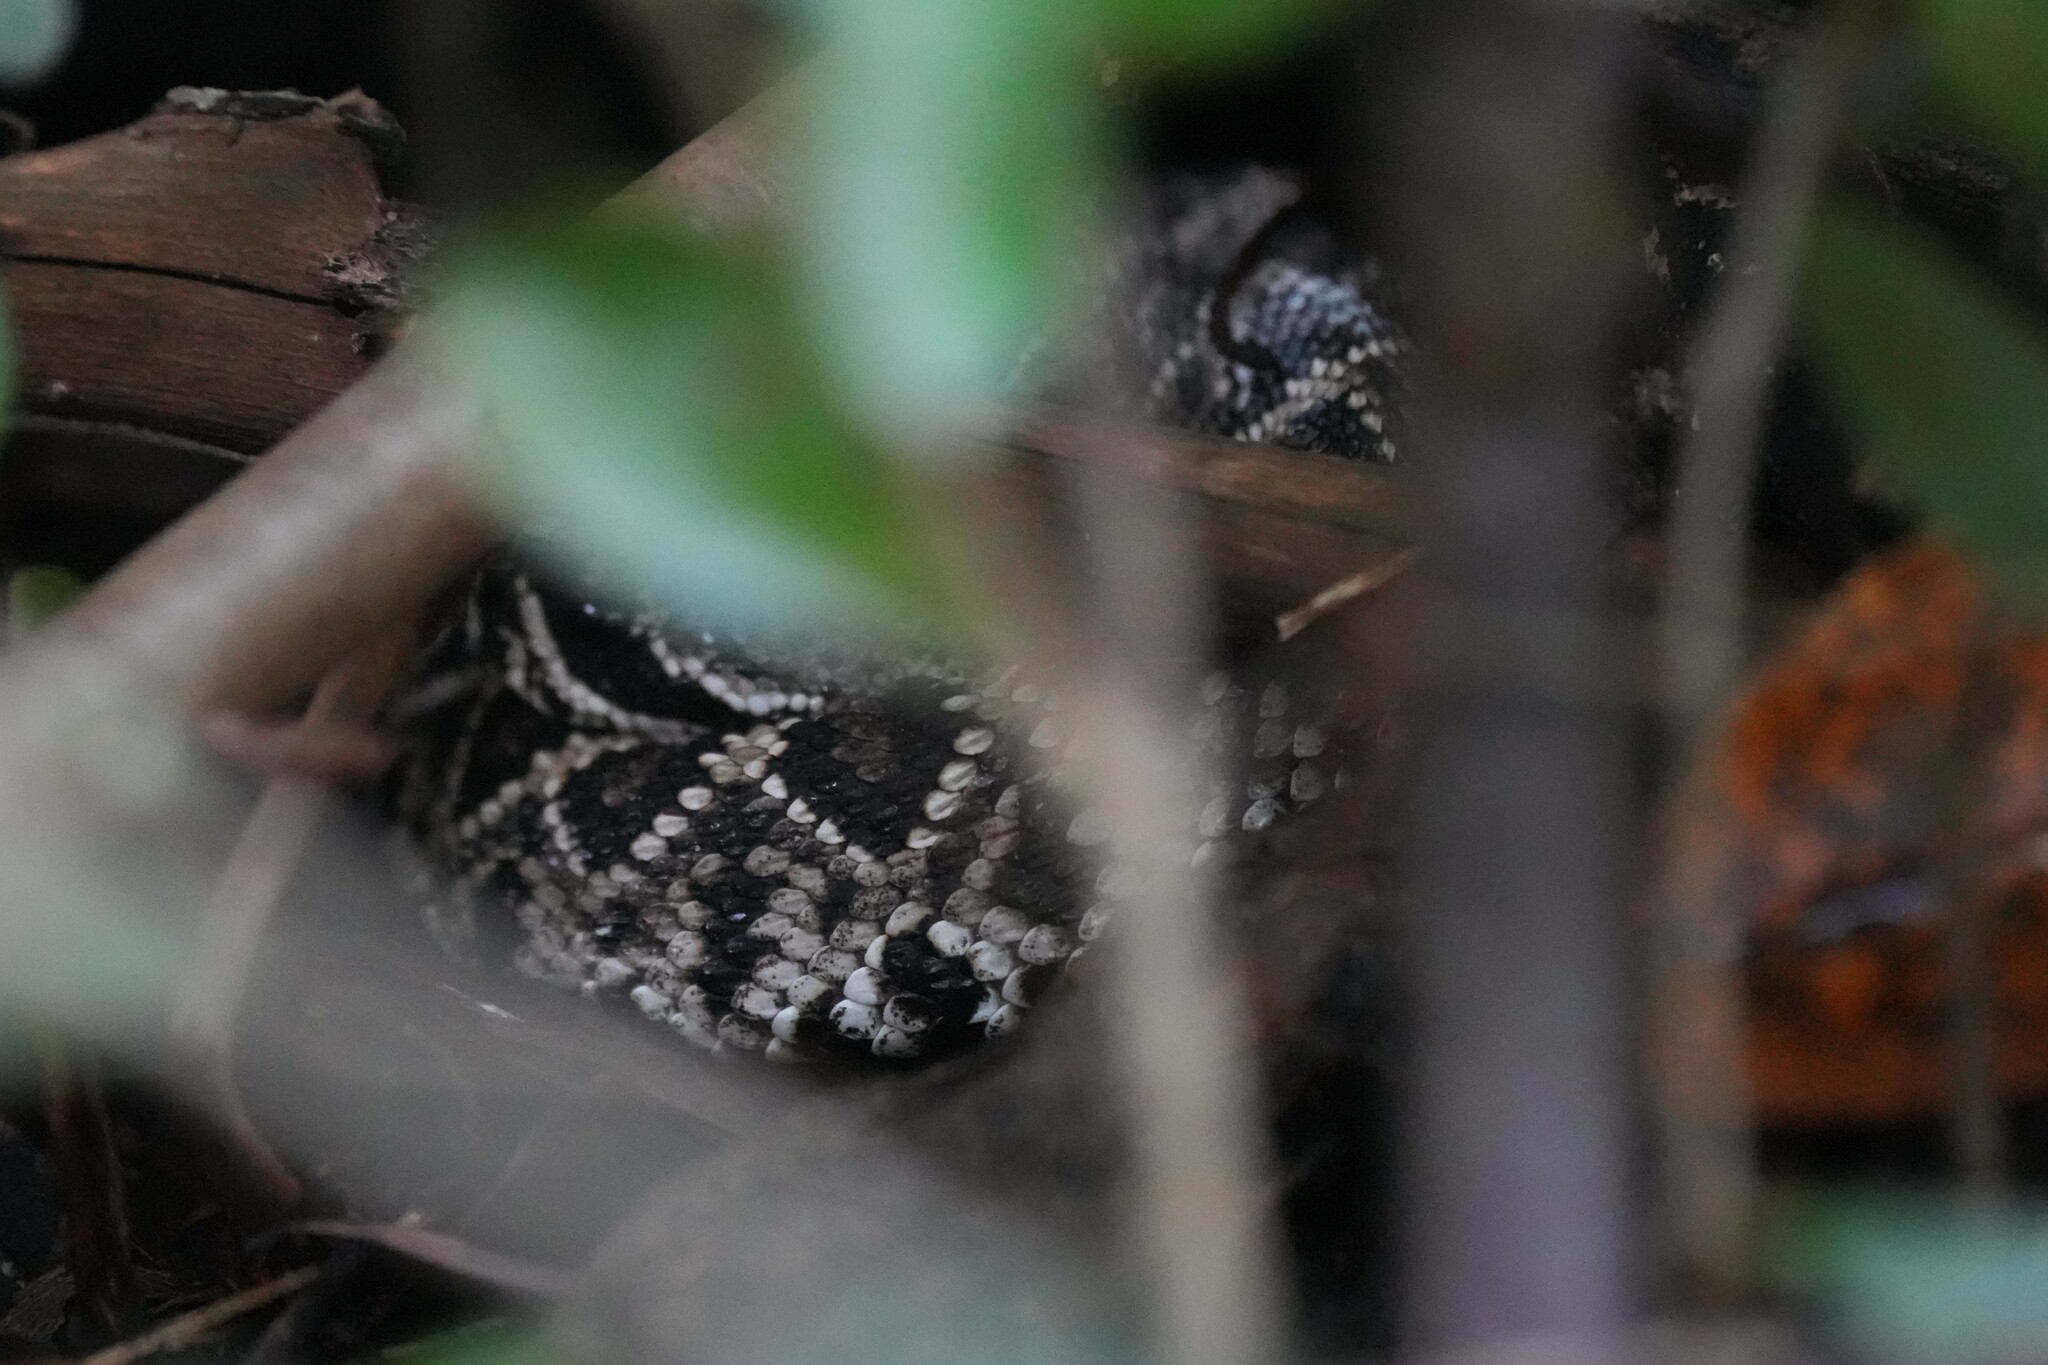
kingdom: Animalia
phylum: Chordata
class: Squamata
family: Viperidae
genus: Crotalus
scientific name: Crotalus adamanteus
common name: Eastern diamondback rattlesnake
